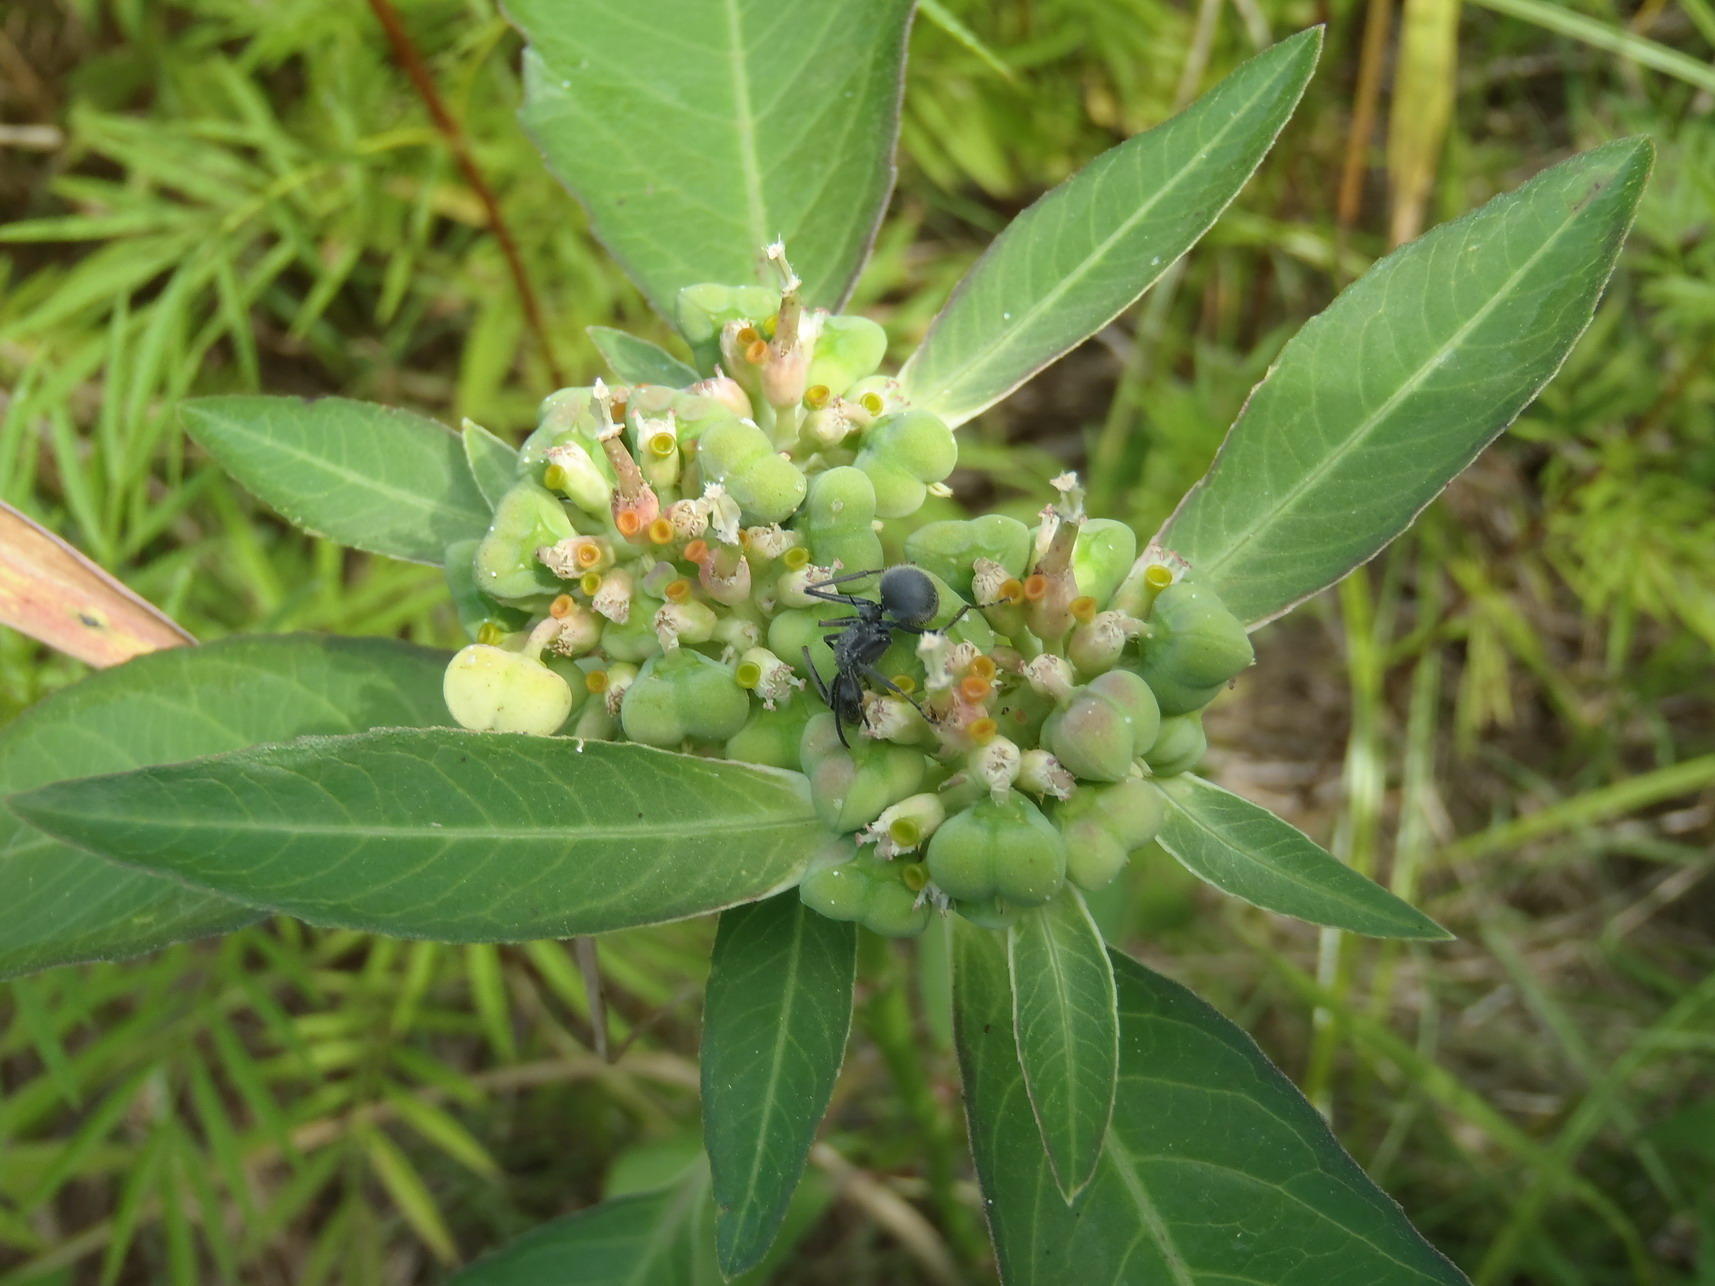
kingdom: Plantae
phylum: Tracheophyta
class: Magnoliopsida
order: Malpighiales
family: Euphorbiaceae
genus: Euphorbia
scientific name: Euphorbia heterophylla
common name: Mexican fireplant
